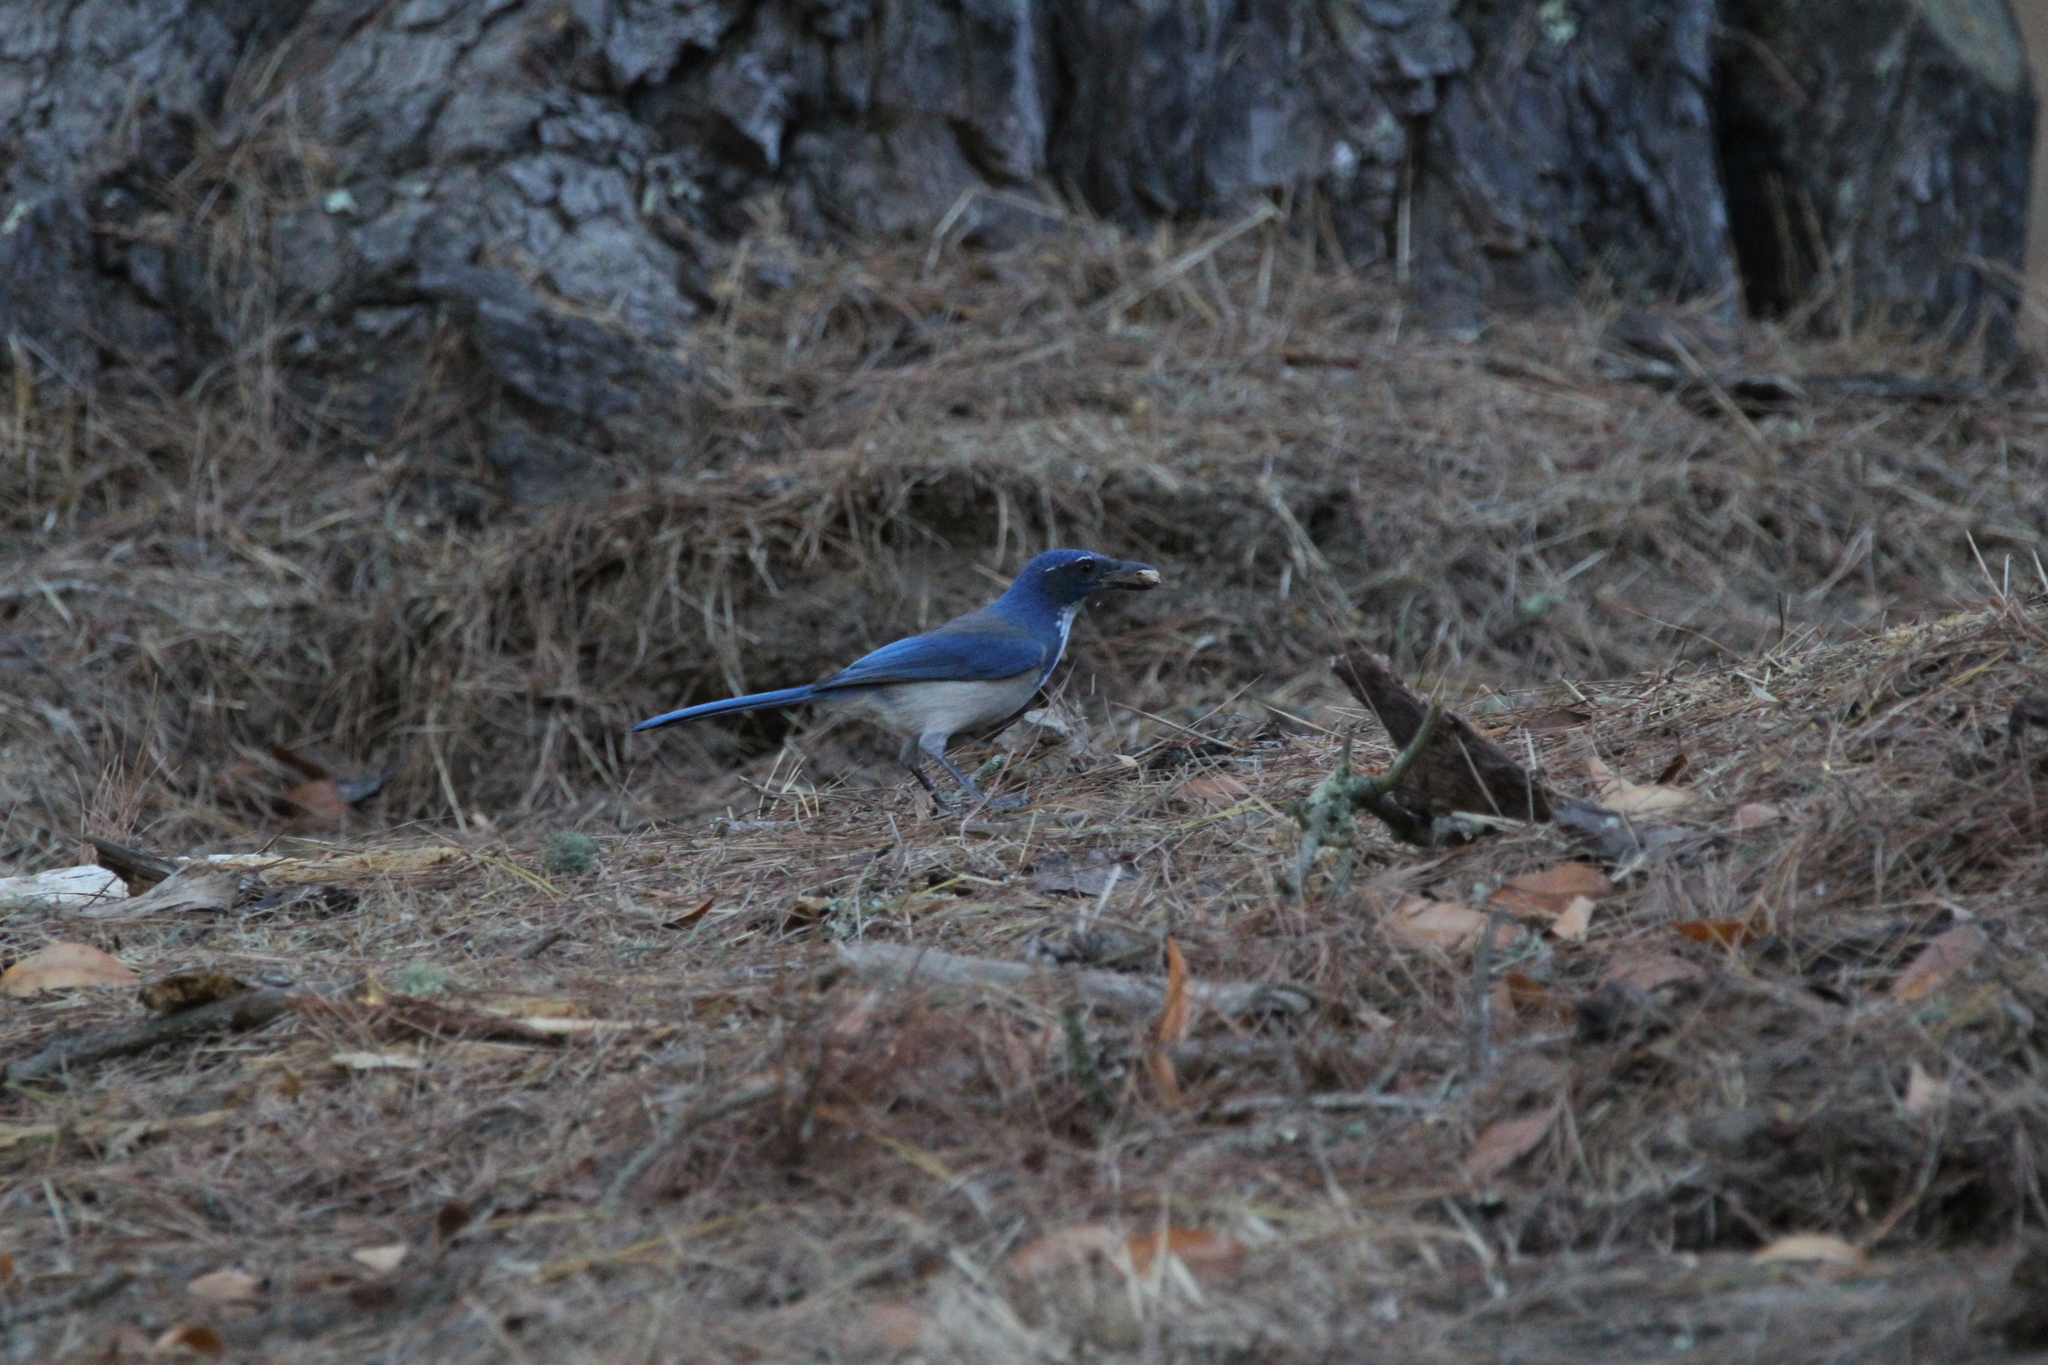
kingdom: Animalia
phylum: Chordata
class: Aves
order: Passeriformes
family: Corvidae
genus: Aphelocoma
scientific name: Aphelocoma californica
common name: California scrub-jay
